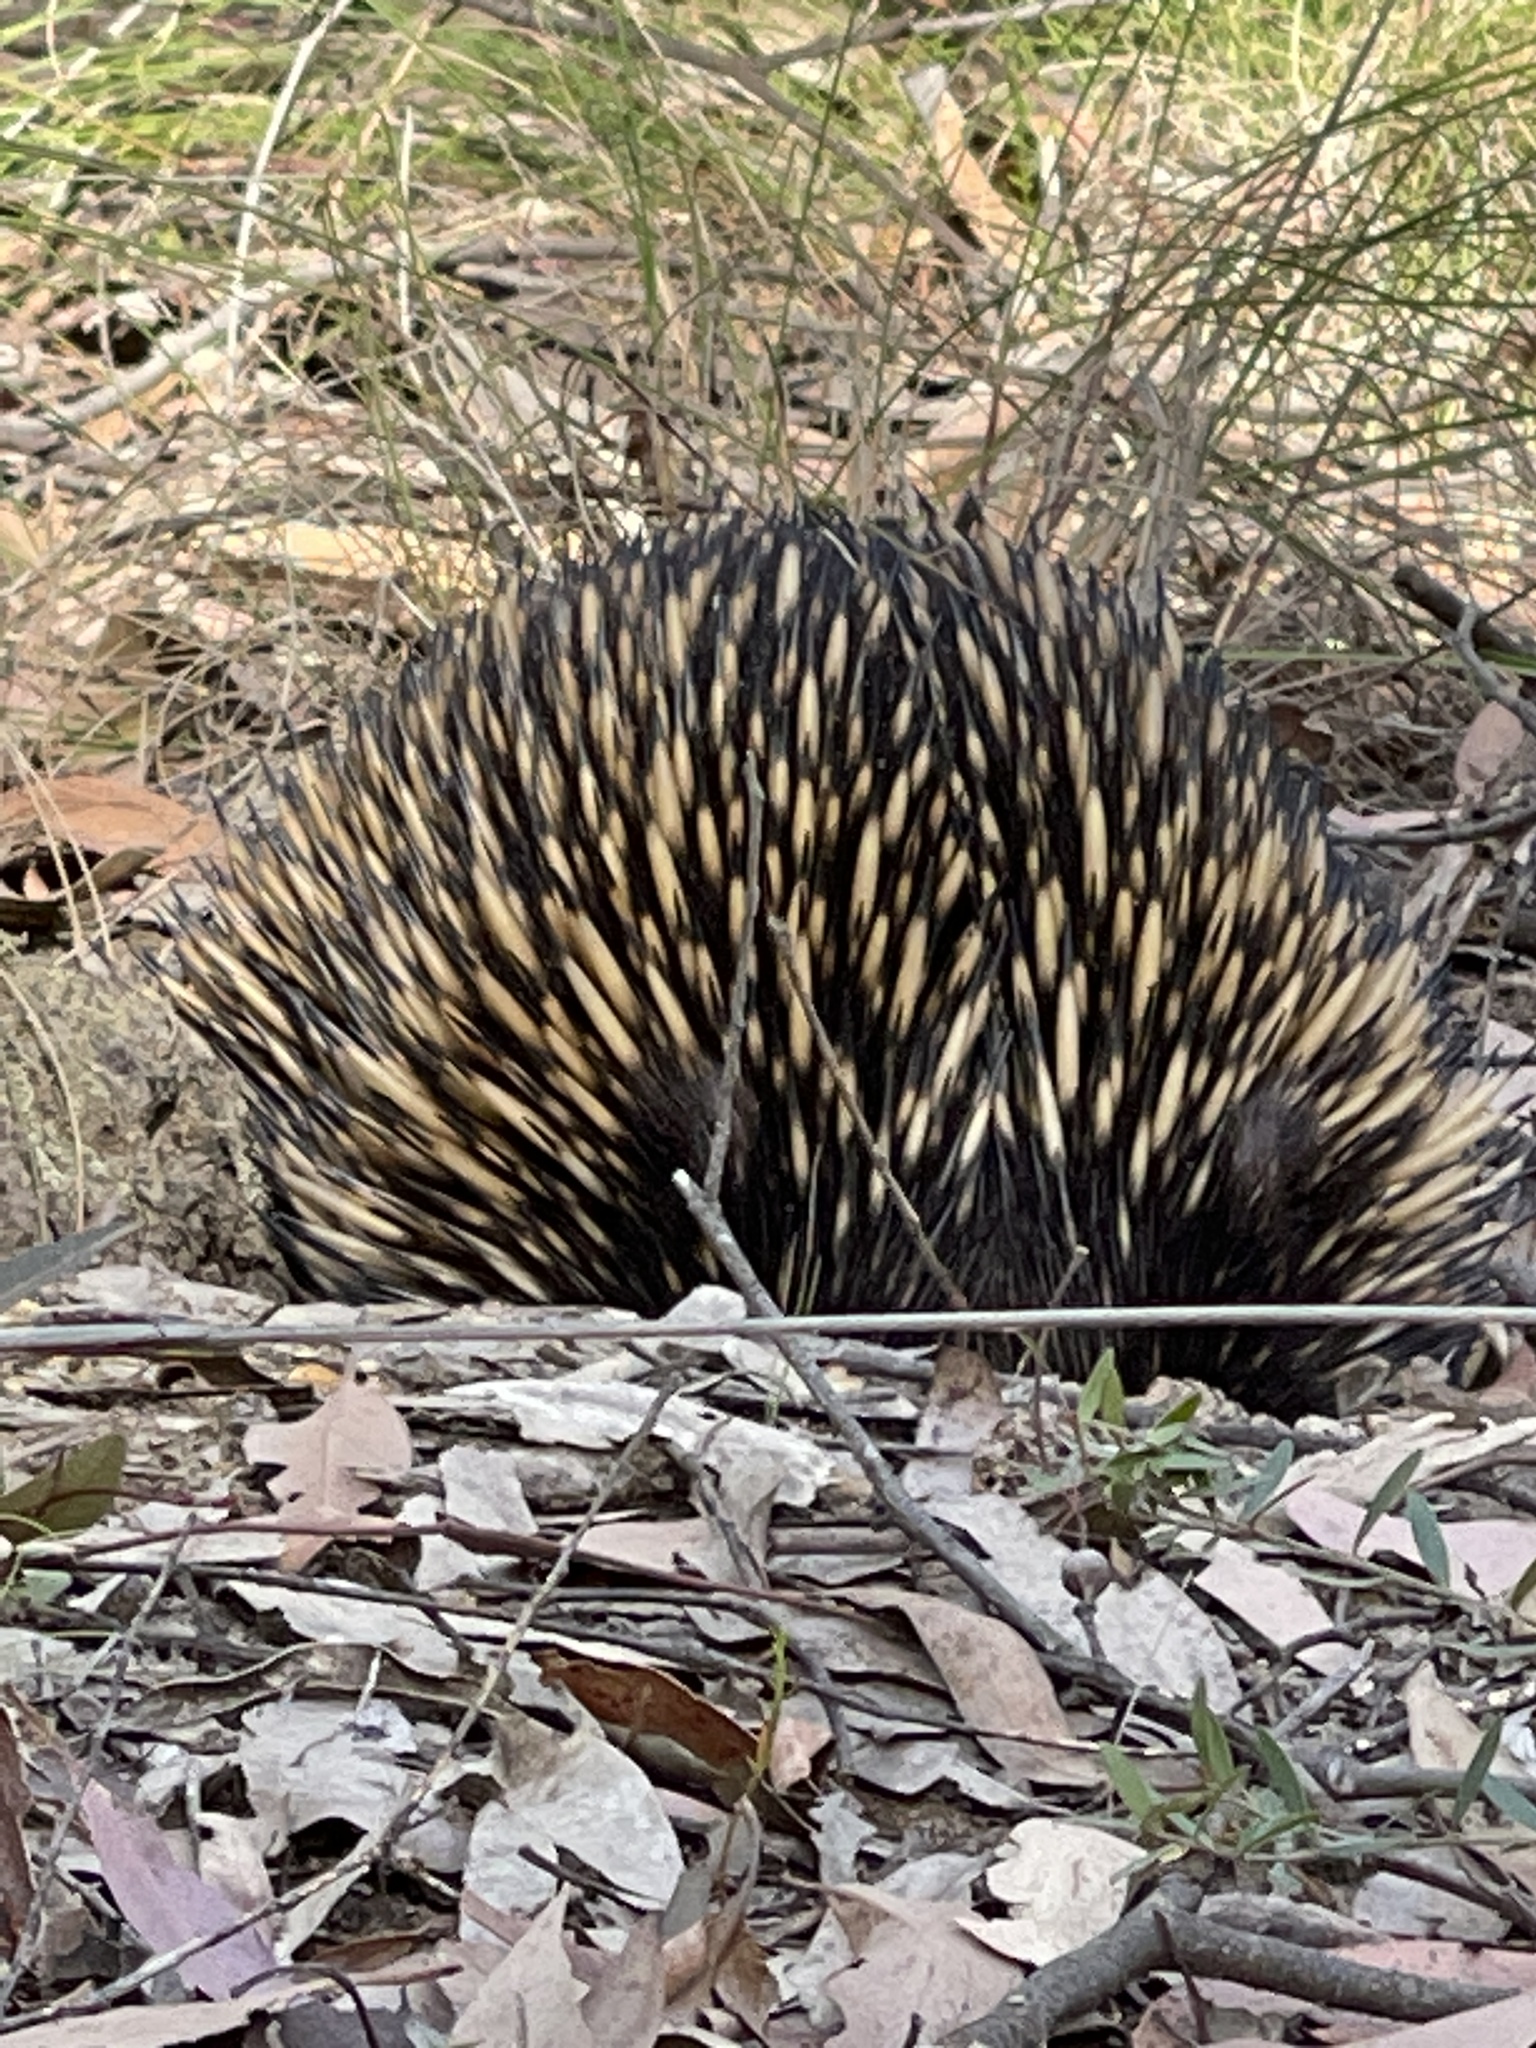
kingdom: Animalia
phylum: Chordata
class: Mammalia
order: Monotremata
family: Tachyglossidae
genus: Tachyglossus
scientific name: Tachyglossus aculeatus
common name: Short-beaked echidna
